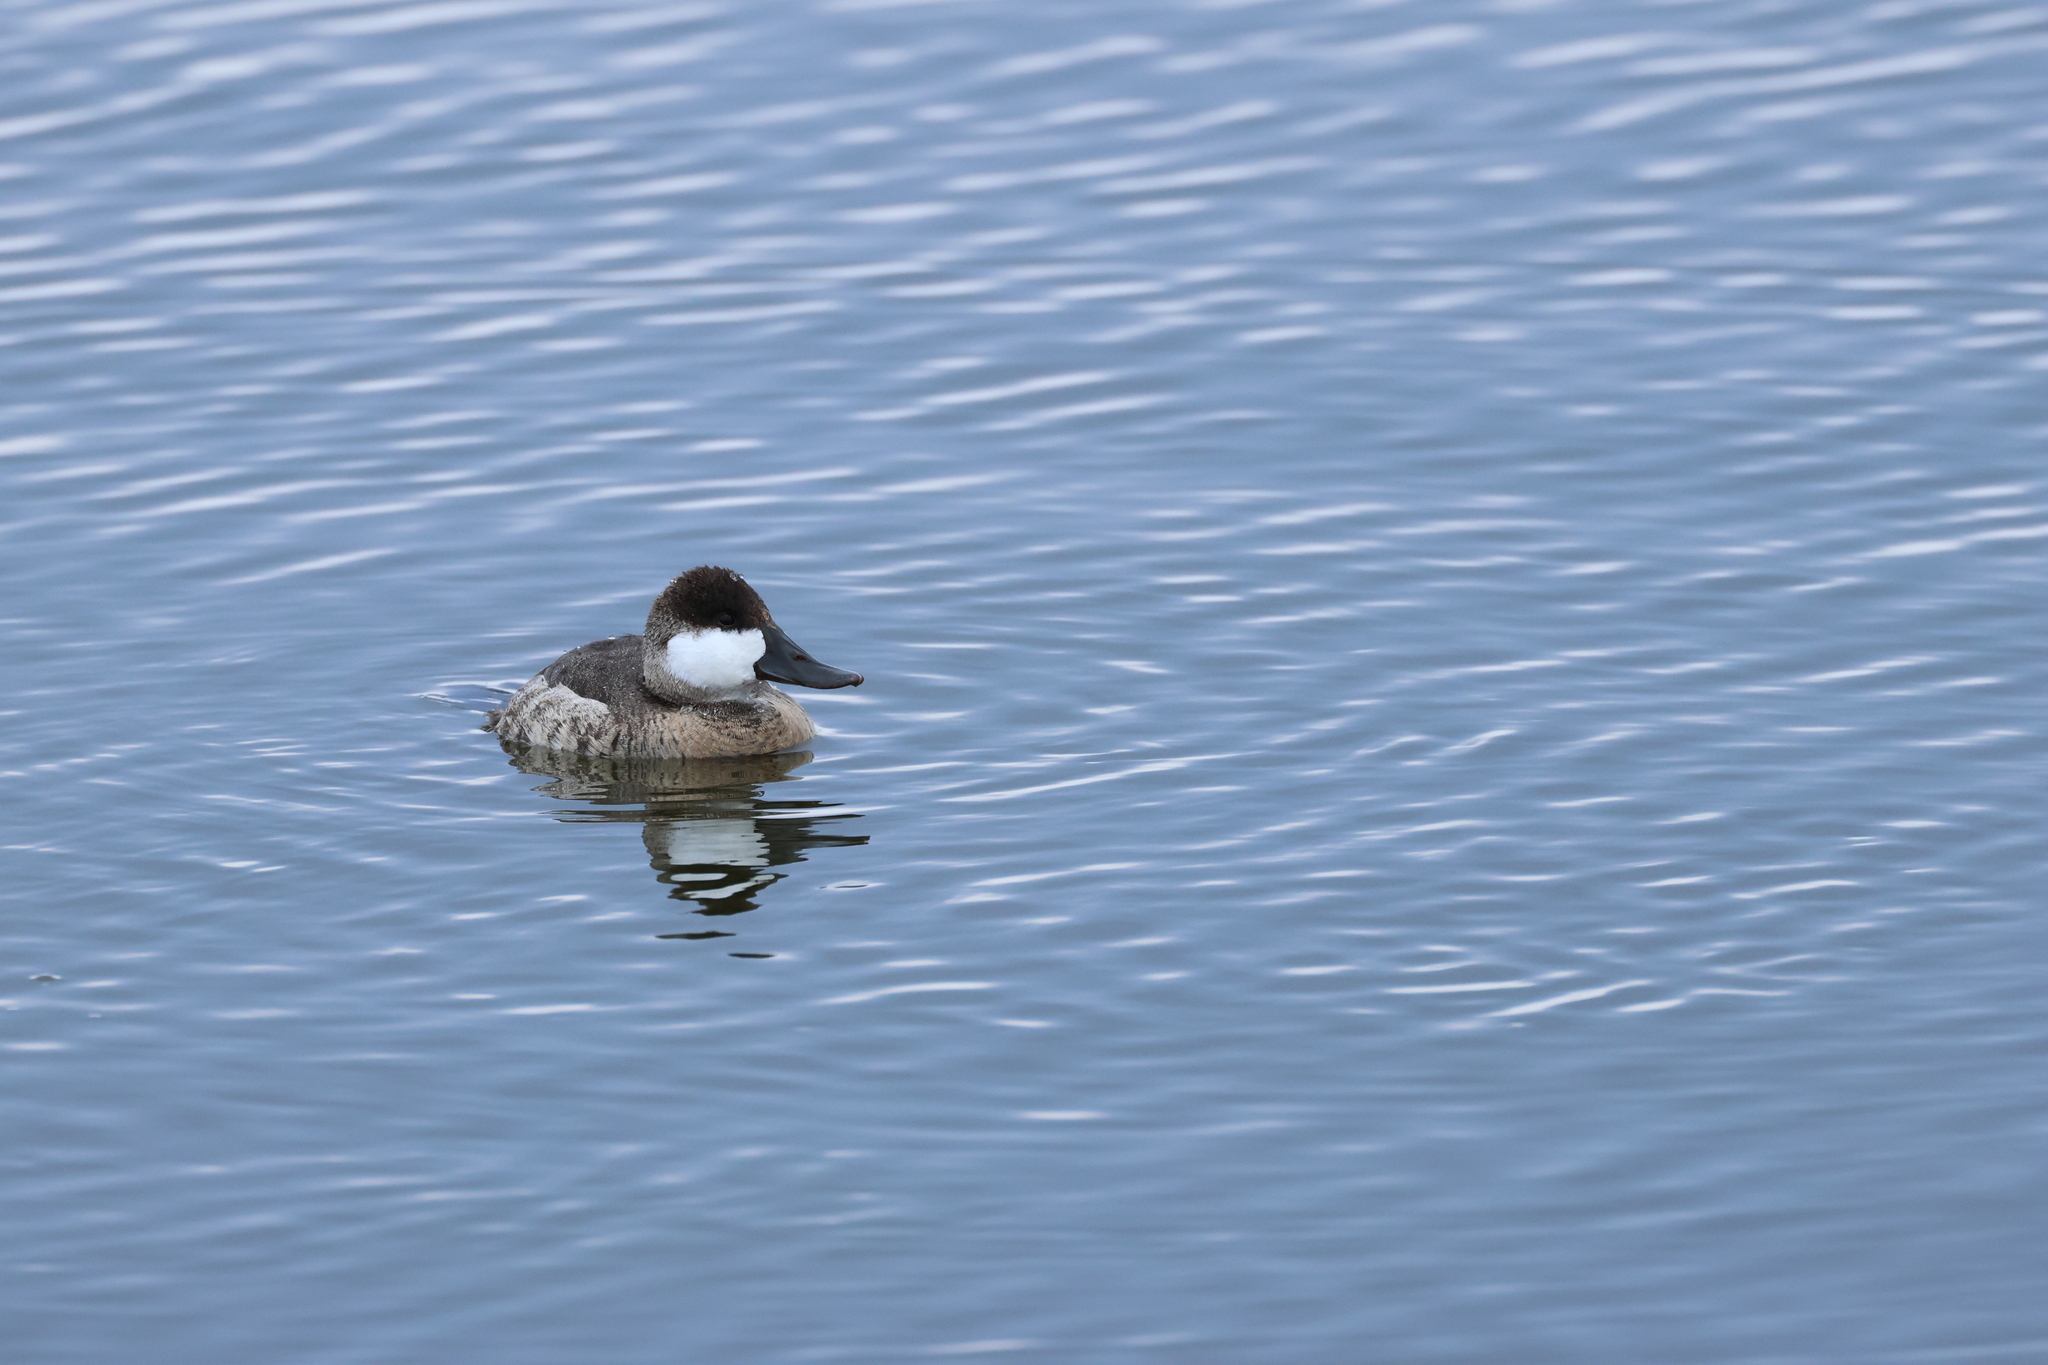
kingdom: Animalia
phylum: Chordata
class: Aves
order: Anseriformes
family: Anatidae
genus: Oxyura
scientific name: Oxyura jamaicensis
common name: Ruddy duck
